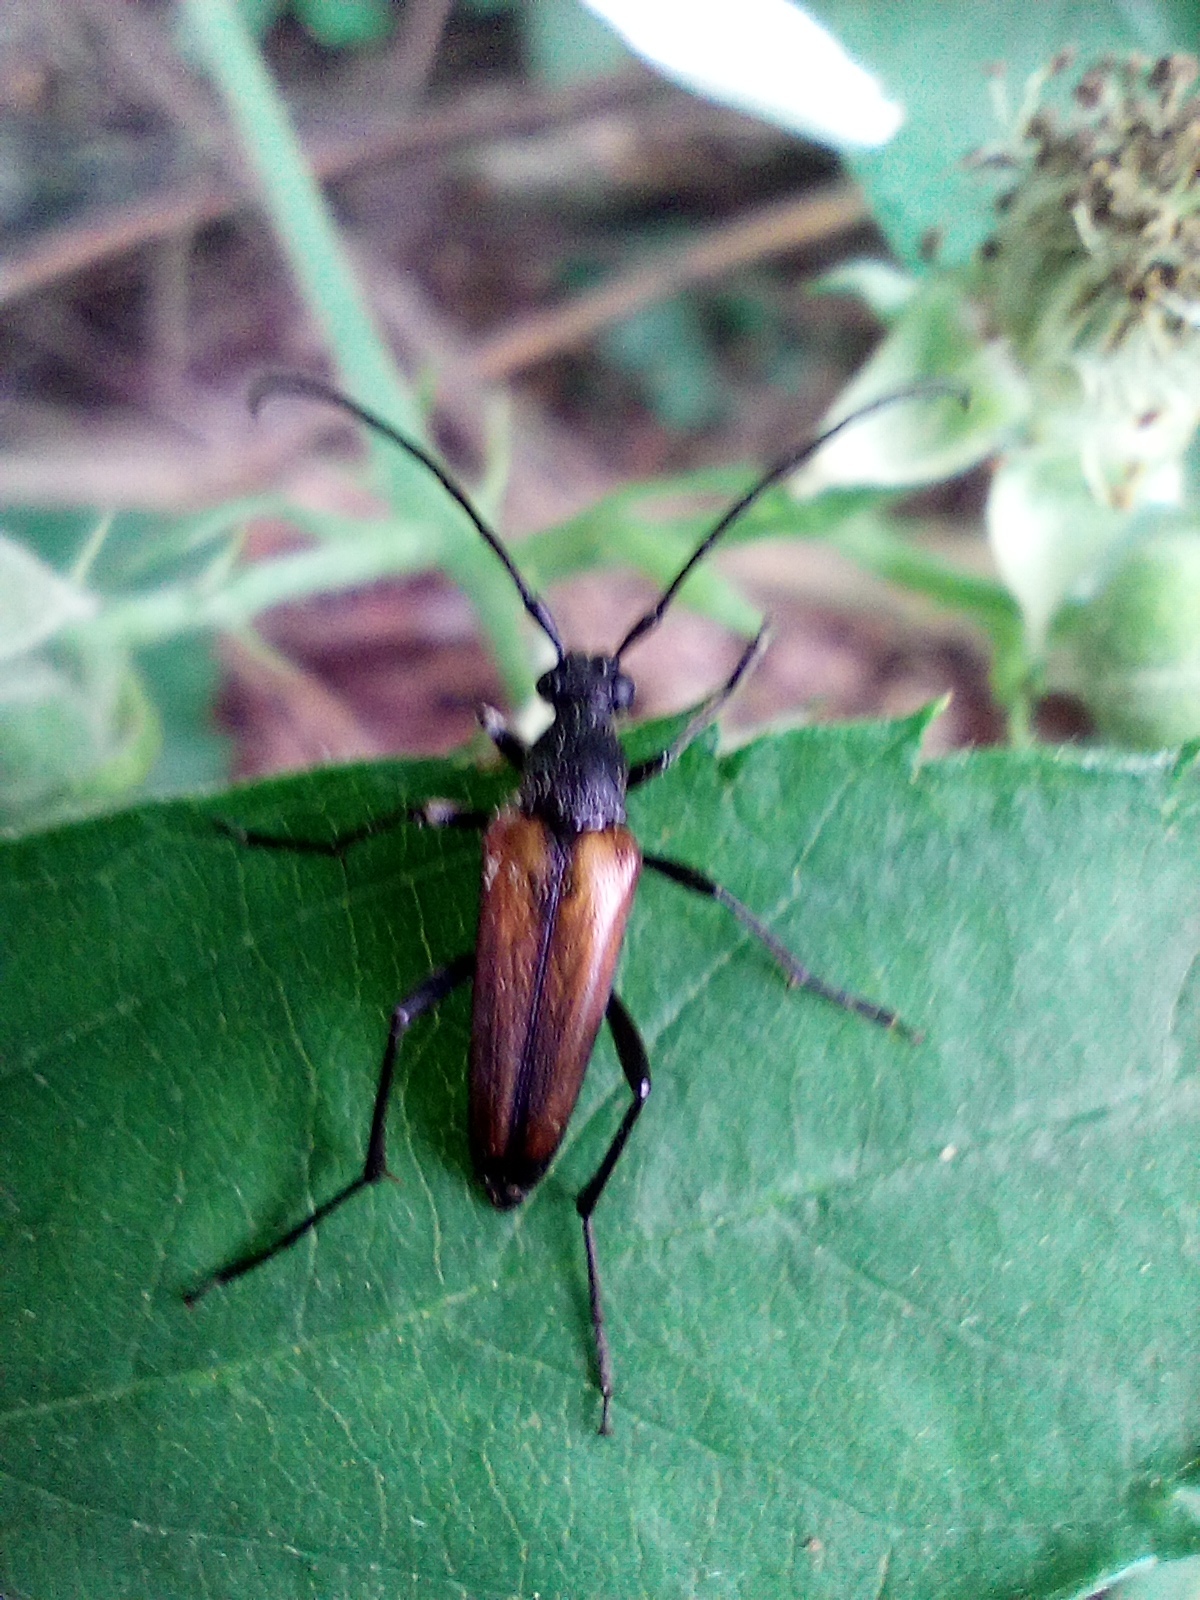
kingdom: Animalia
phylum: Arthropoda
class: Insecta
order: Coleoptera
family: Cerambycidae
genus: Stenurella
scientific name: Stenurella melanura
